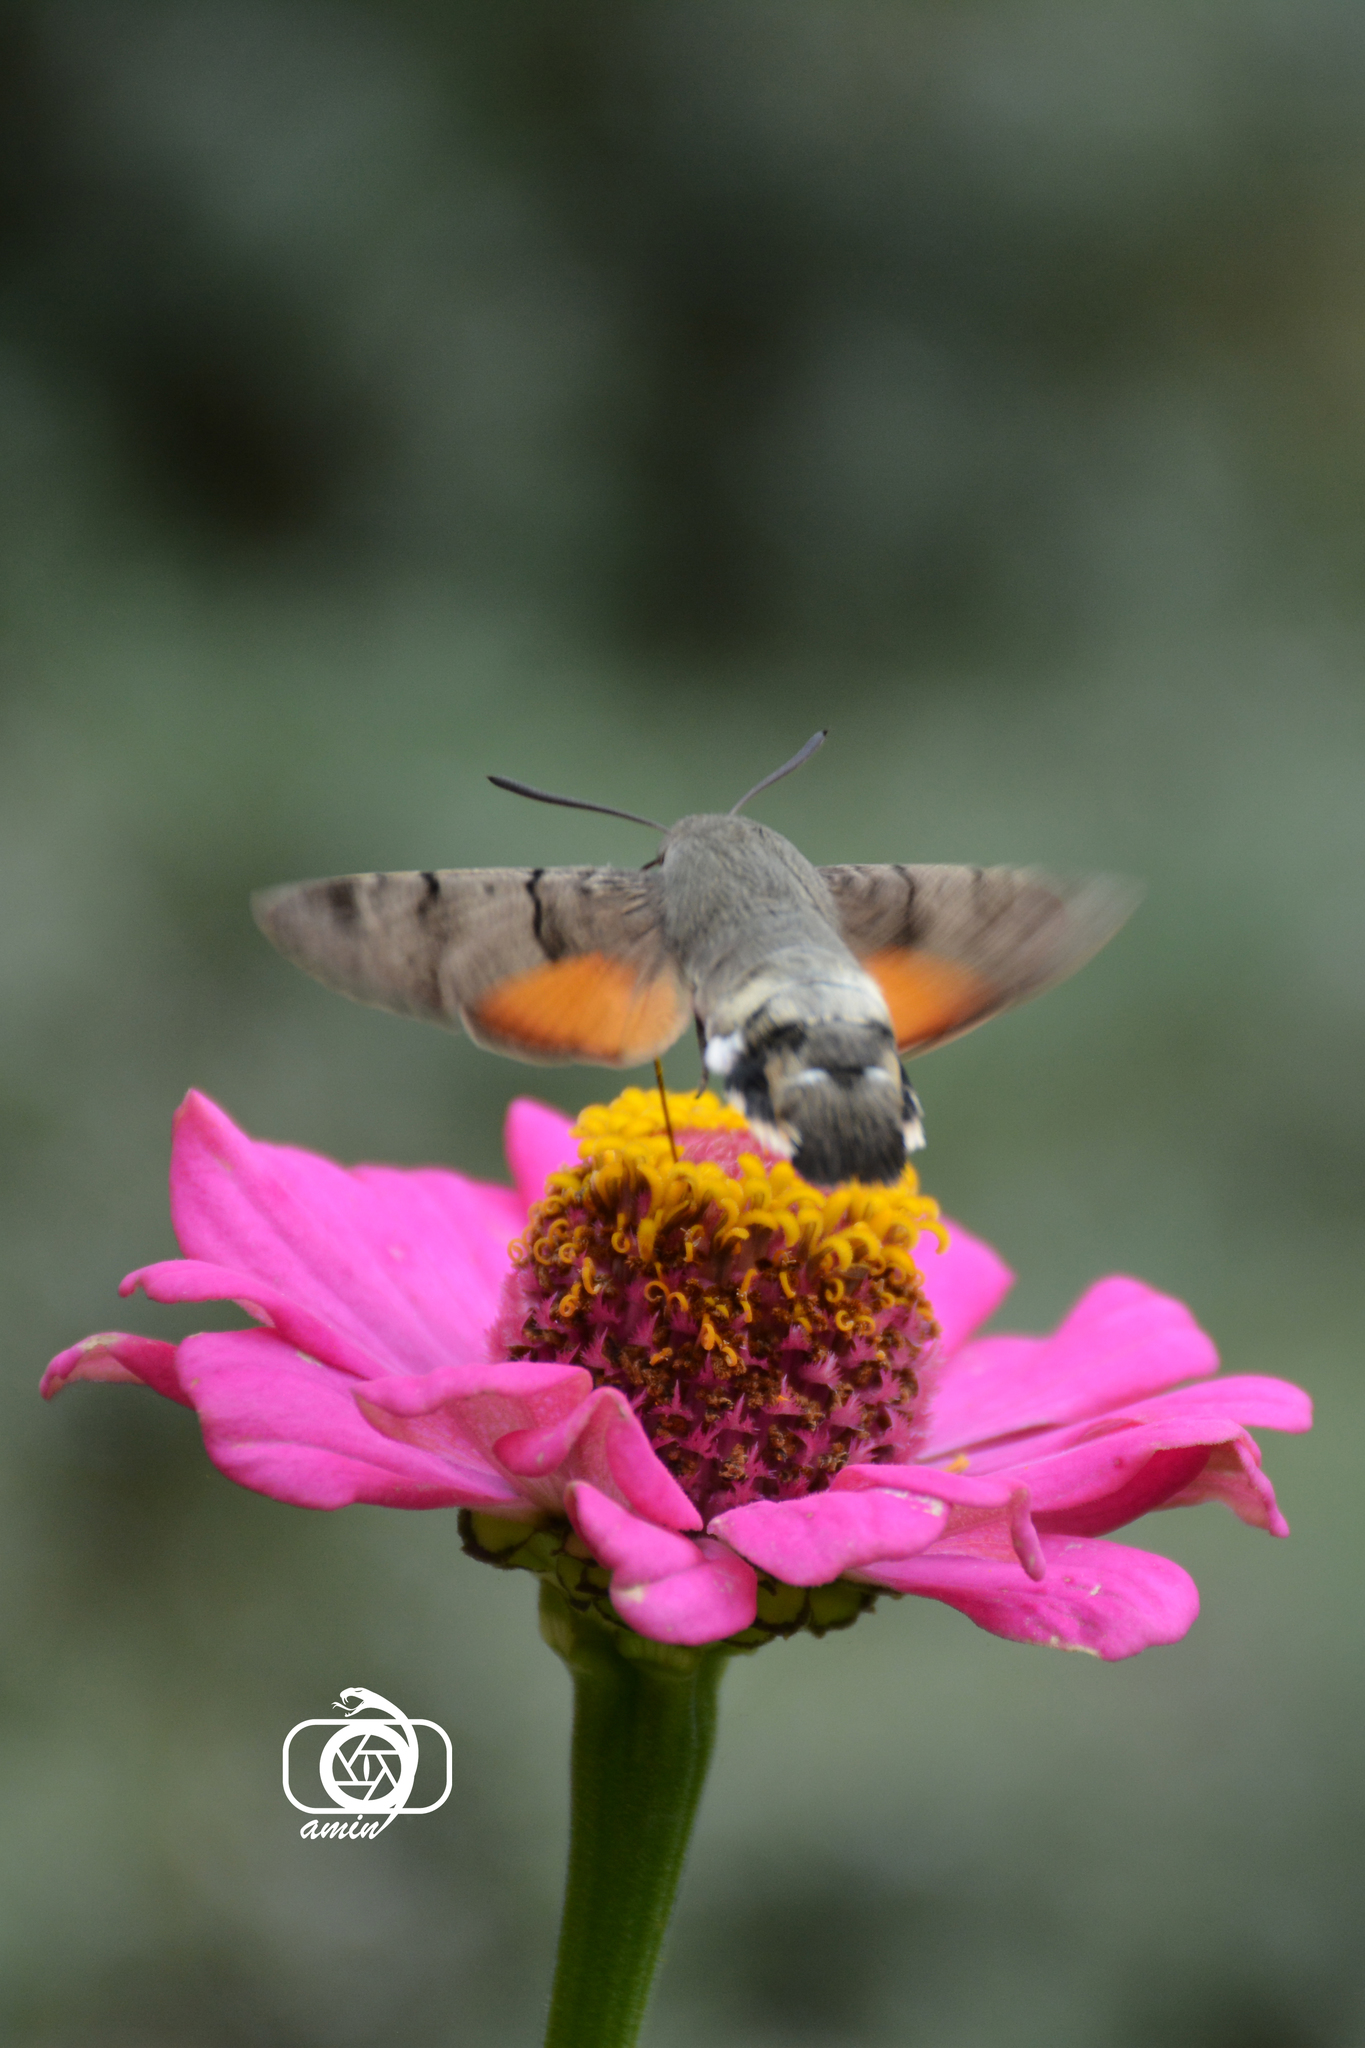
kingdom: Animalia
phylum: Arthropoda
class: Insecta
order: Lepidoptera
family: Sphingidae
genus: Macroglossum
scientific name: Macroglossum stellatarum
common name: Humming-bird hawk-moth
